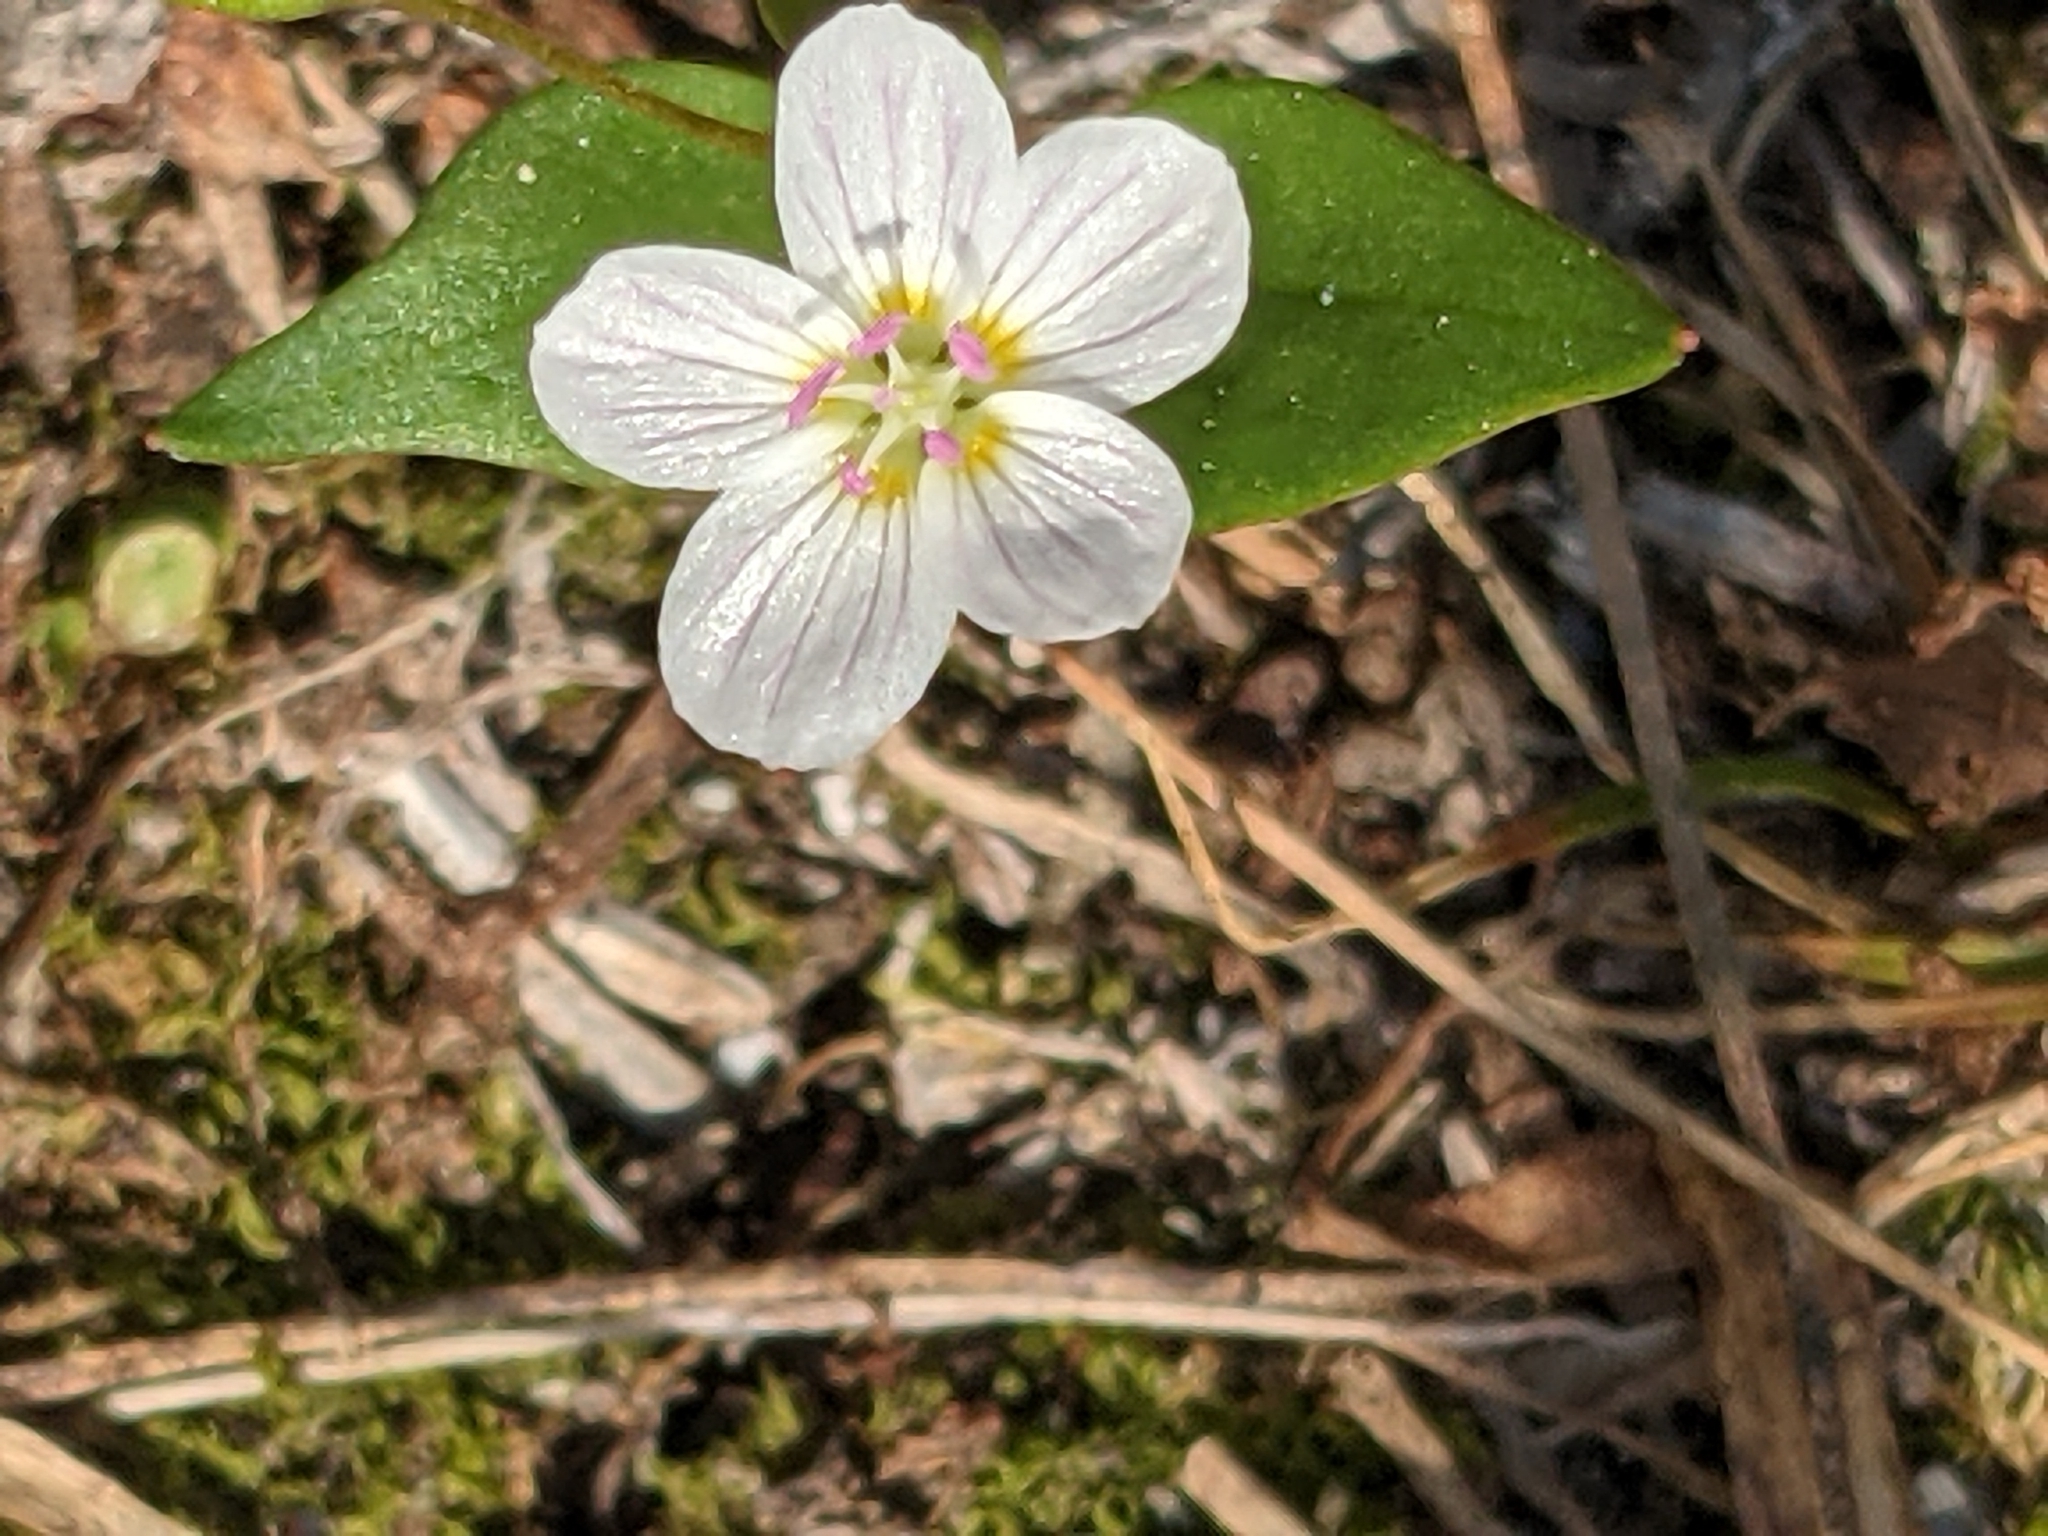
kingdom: Plantae
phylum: Tracheophyta
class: Magnoliopsida
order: Caryophyllales
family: Montiaceae
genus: Claytonia
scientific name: Claytonia lanceolata
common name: Western spring-beauty
